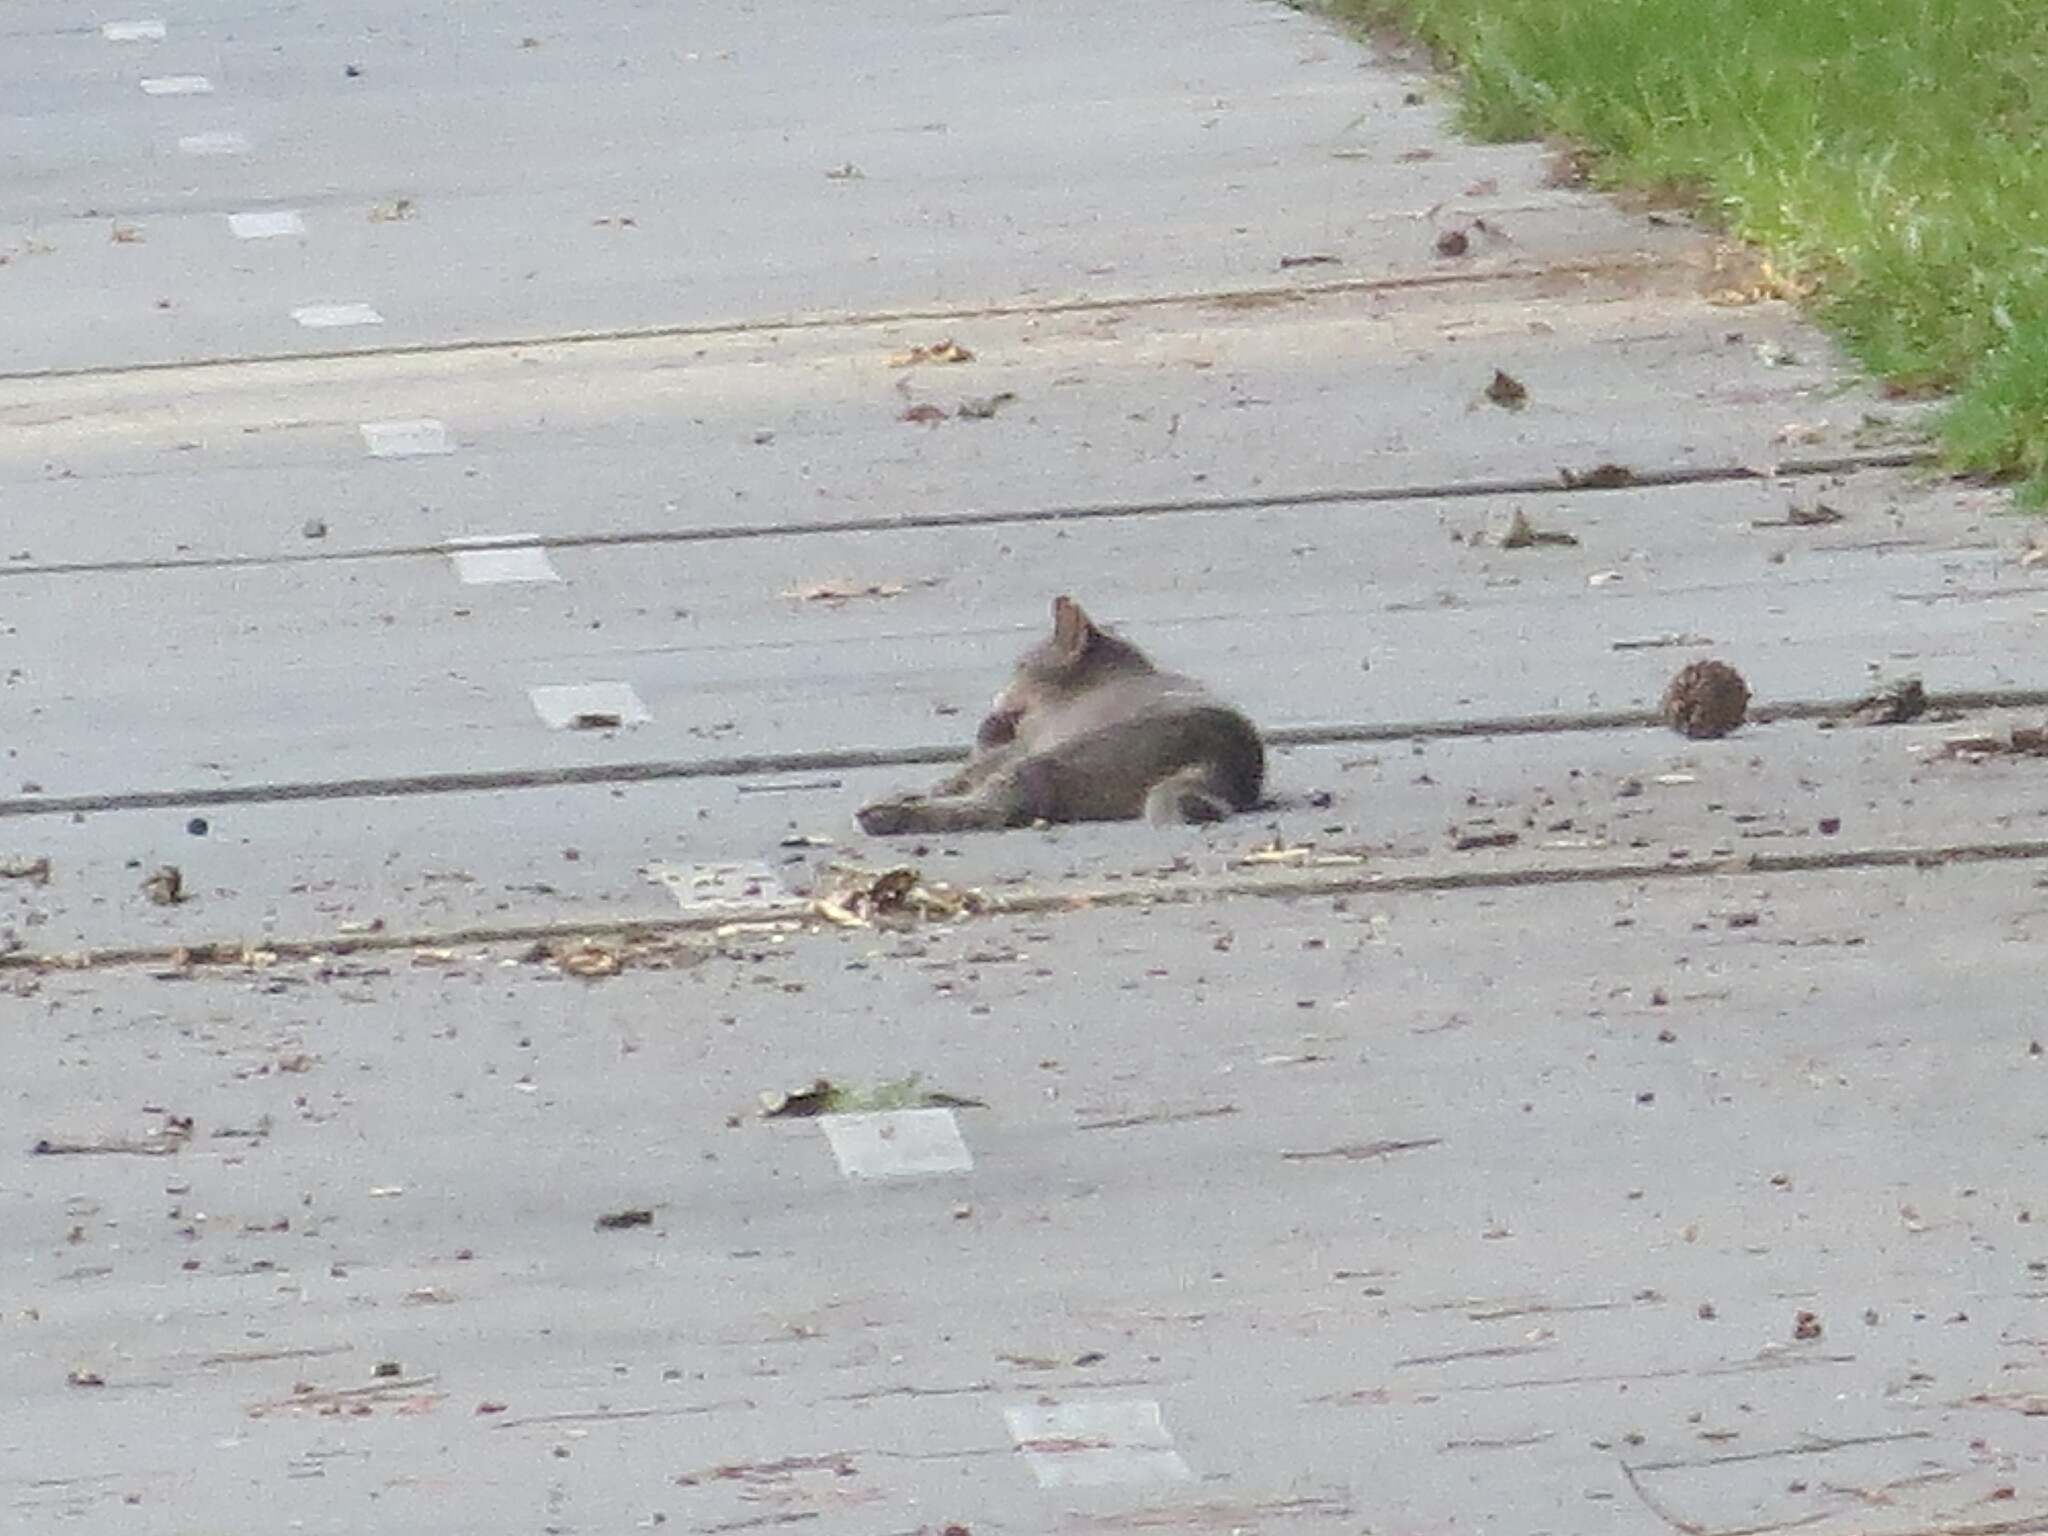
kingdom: Animalia
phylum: Chordata
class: Mammalia
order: Carnivora
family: Felidae
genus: Felis
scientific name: Felis catus
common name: Domestic cat
